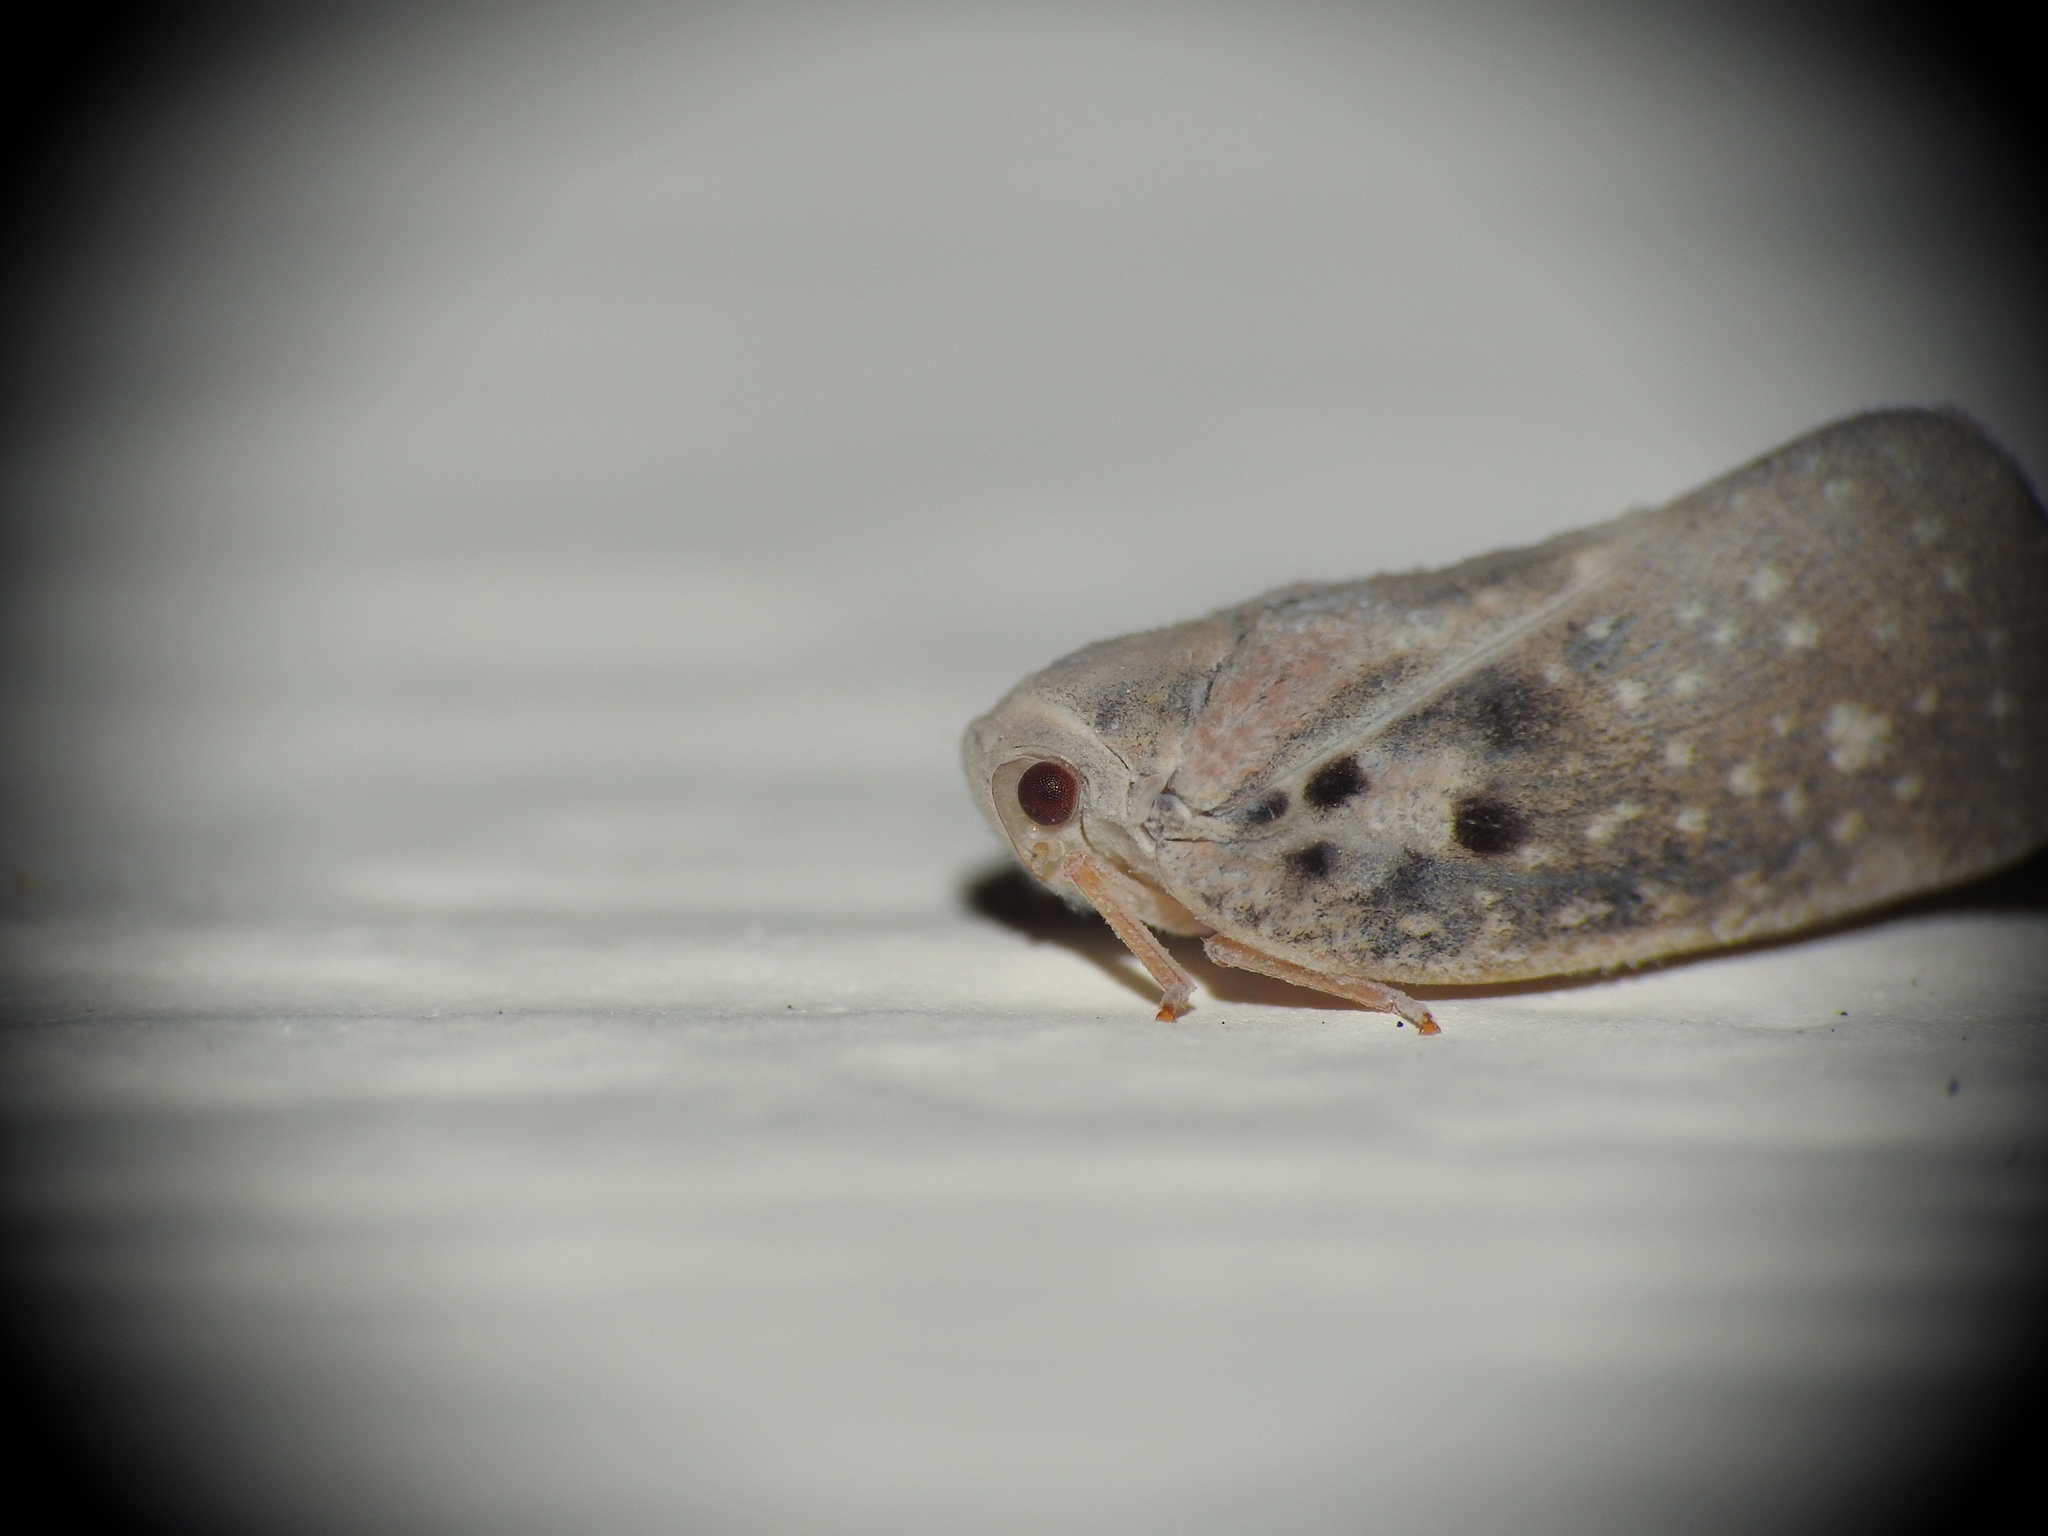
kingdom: Animalia
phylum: Arthropoda
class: Insecta
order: Hemiptera
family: Flatidae
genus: Metcalfa
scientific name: Metcalfa pruinosa
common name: Citrus flatid planthopper
